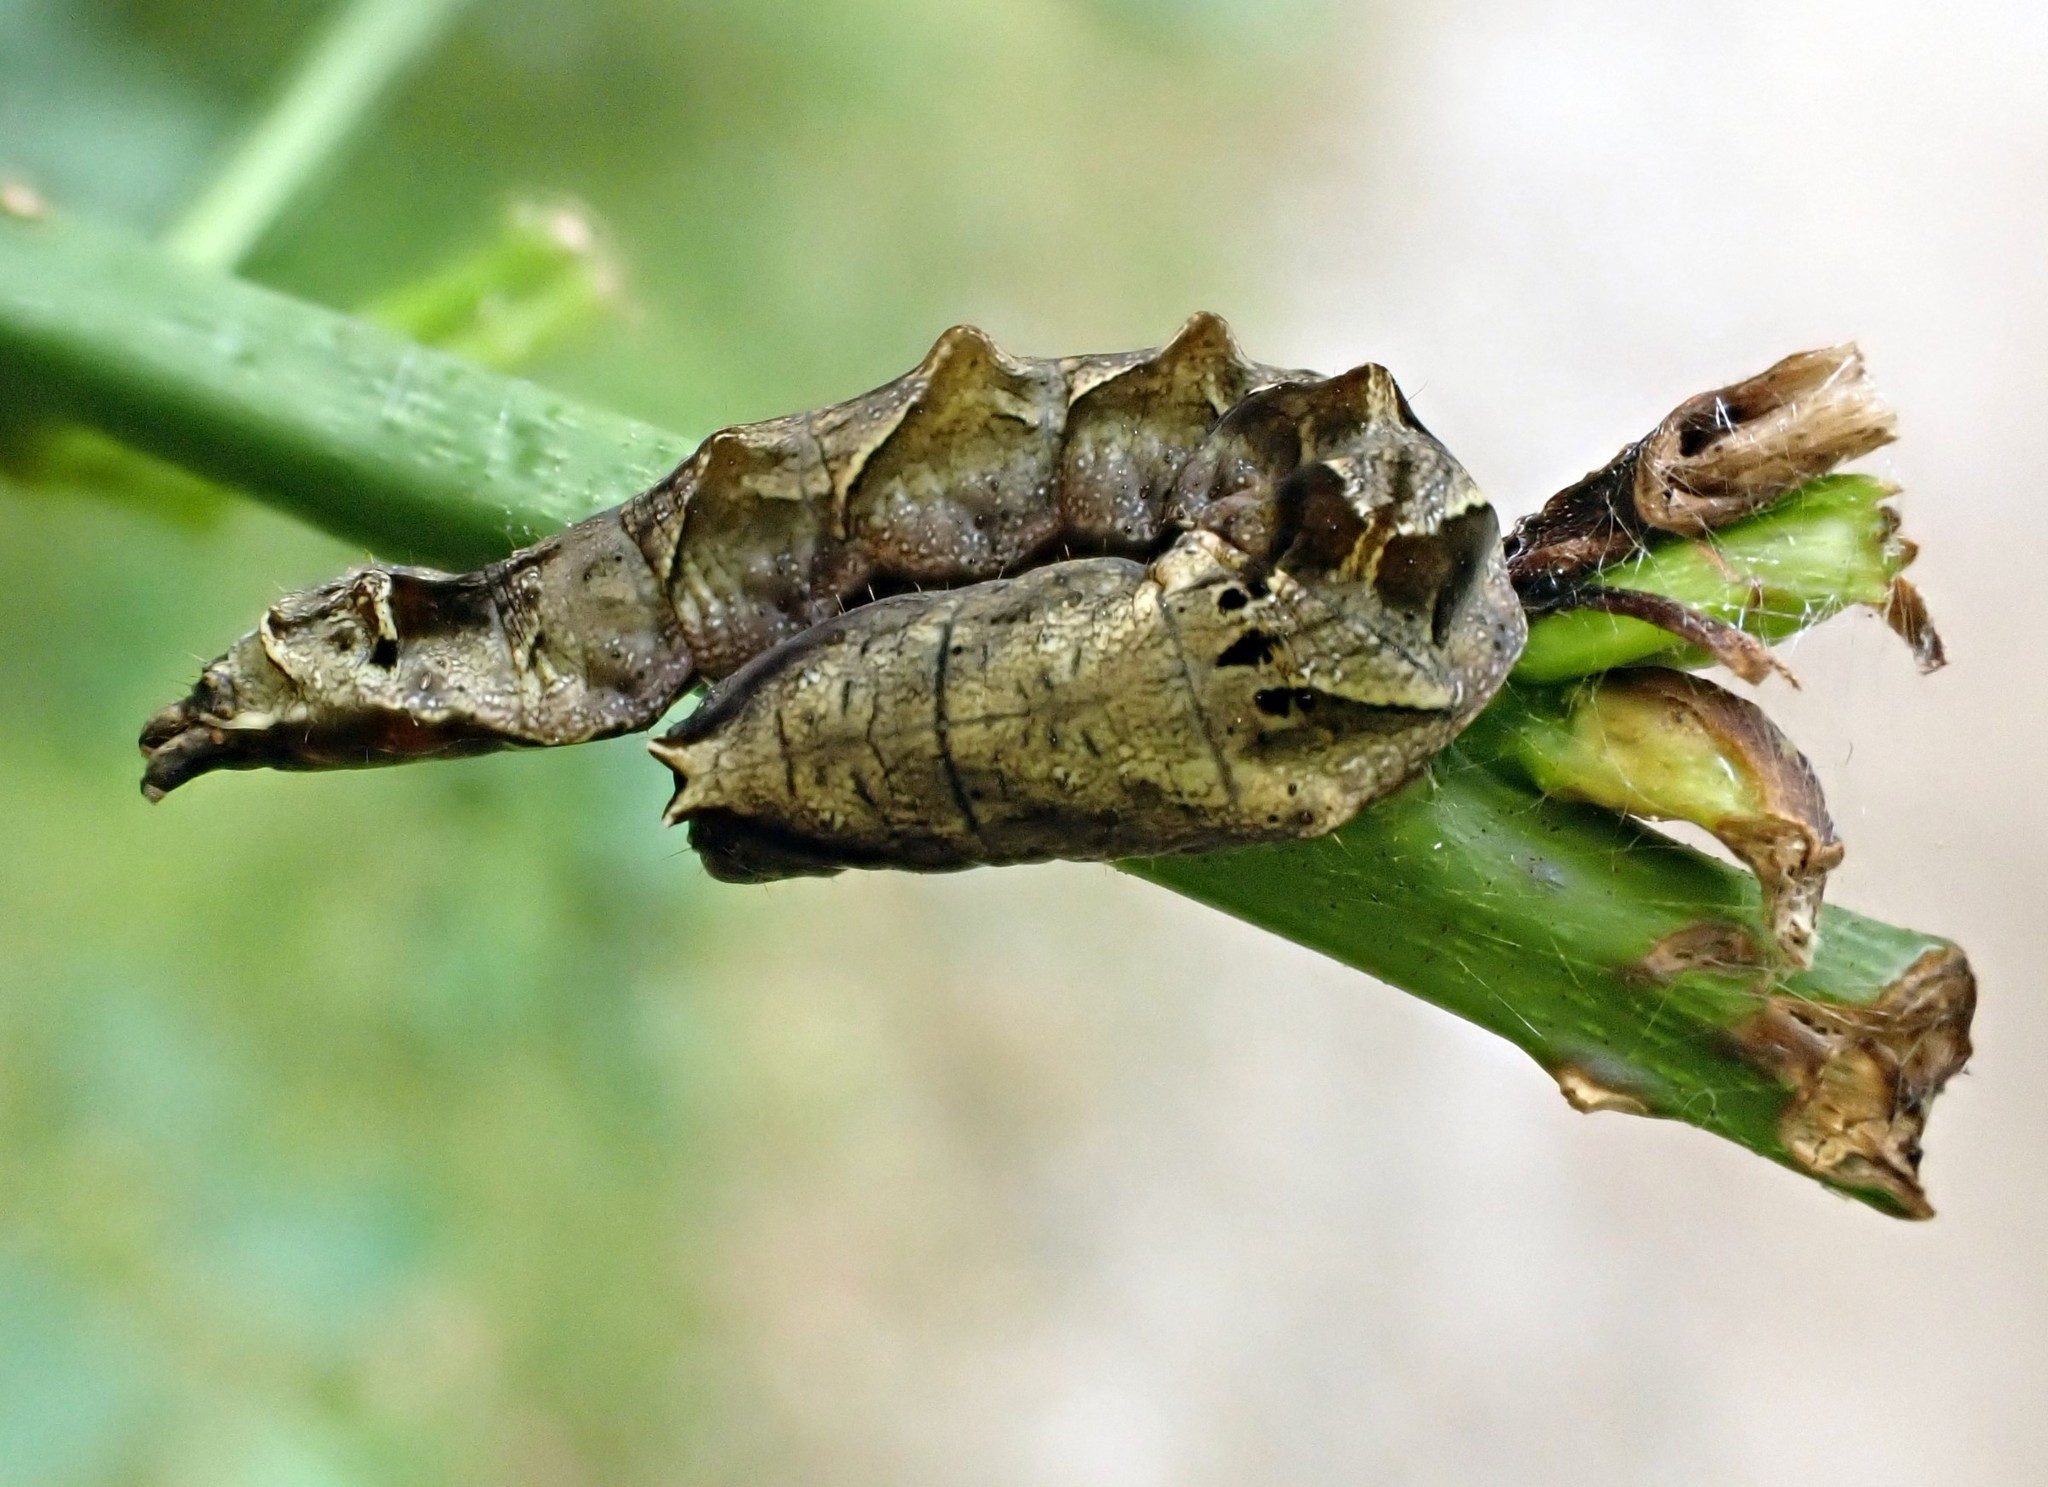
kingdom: Animalia
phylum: Arthropoda
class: Insecta
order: Lepidoptera
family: Drepanidae
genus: Thyatira
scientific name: Thyatira batis
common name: Peach blossom
